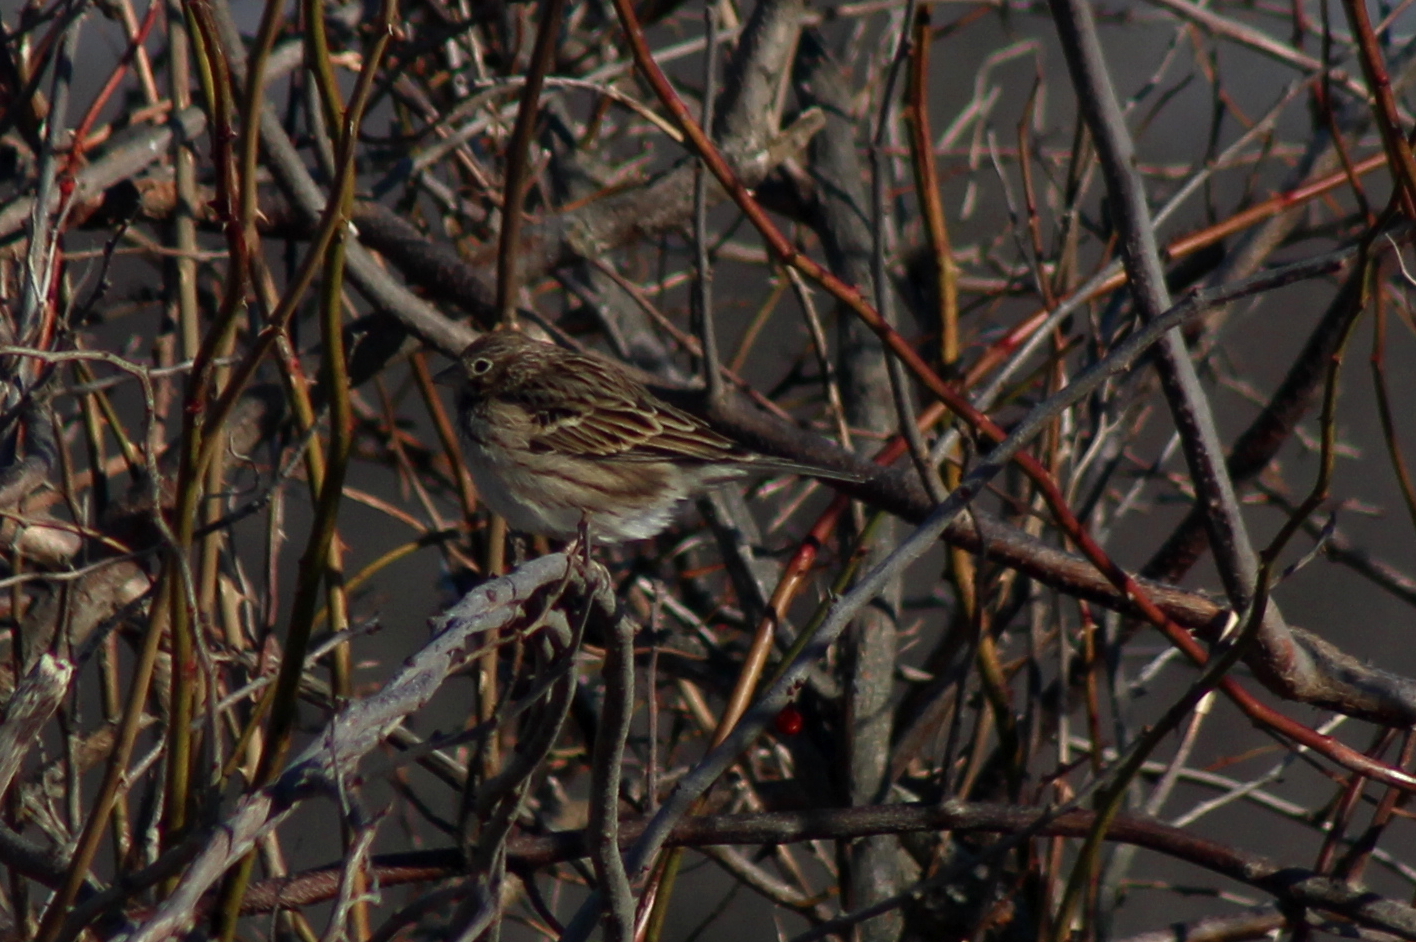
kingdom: Animalia
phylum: Chordata
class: Aves
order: Passeriformes
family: Passerellidae
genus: Pooecetes
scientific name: Pooecetes gramineus
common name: Vesper sparrow
